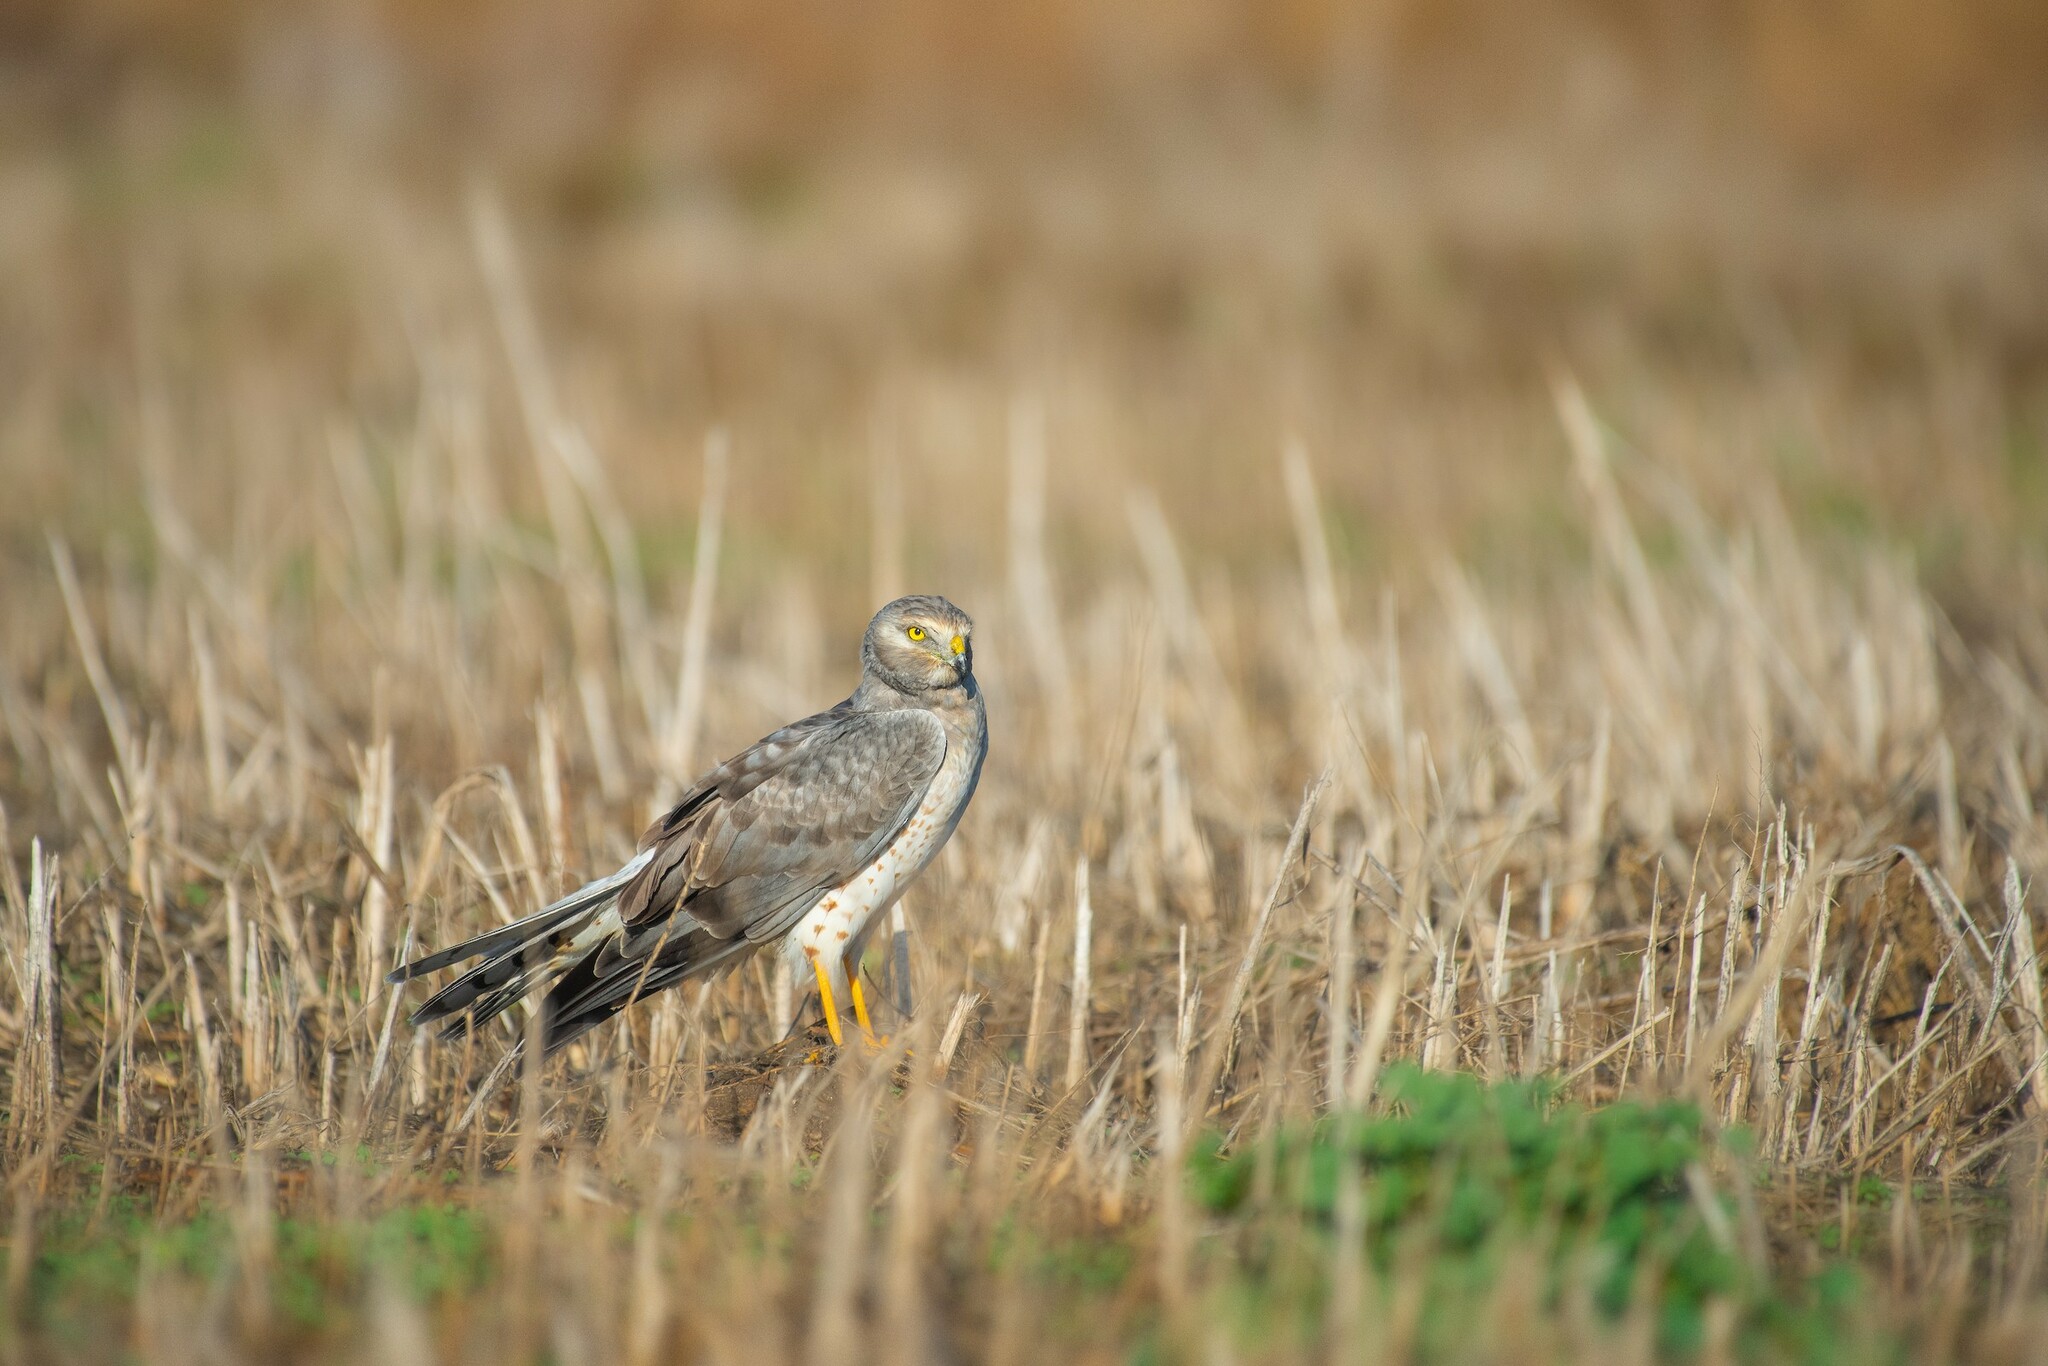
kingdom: Animalia
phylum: Chordata
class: Aves
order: Accipitriformes
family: Accipitridae
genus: Circus
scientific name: Circus cyaneus
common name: Hen harrier
